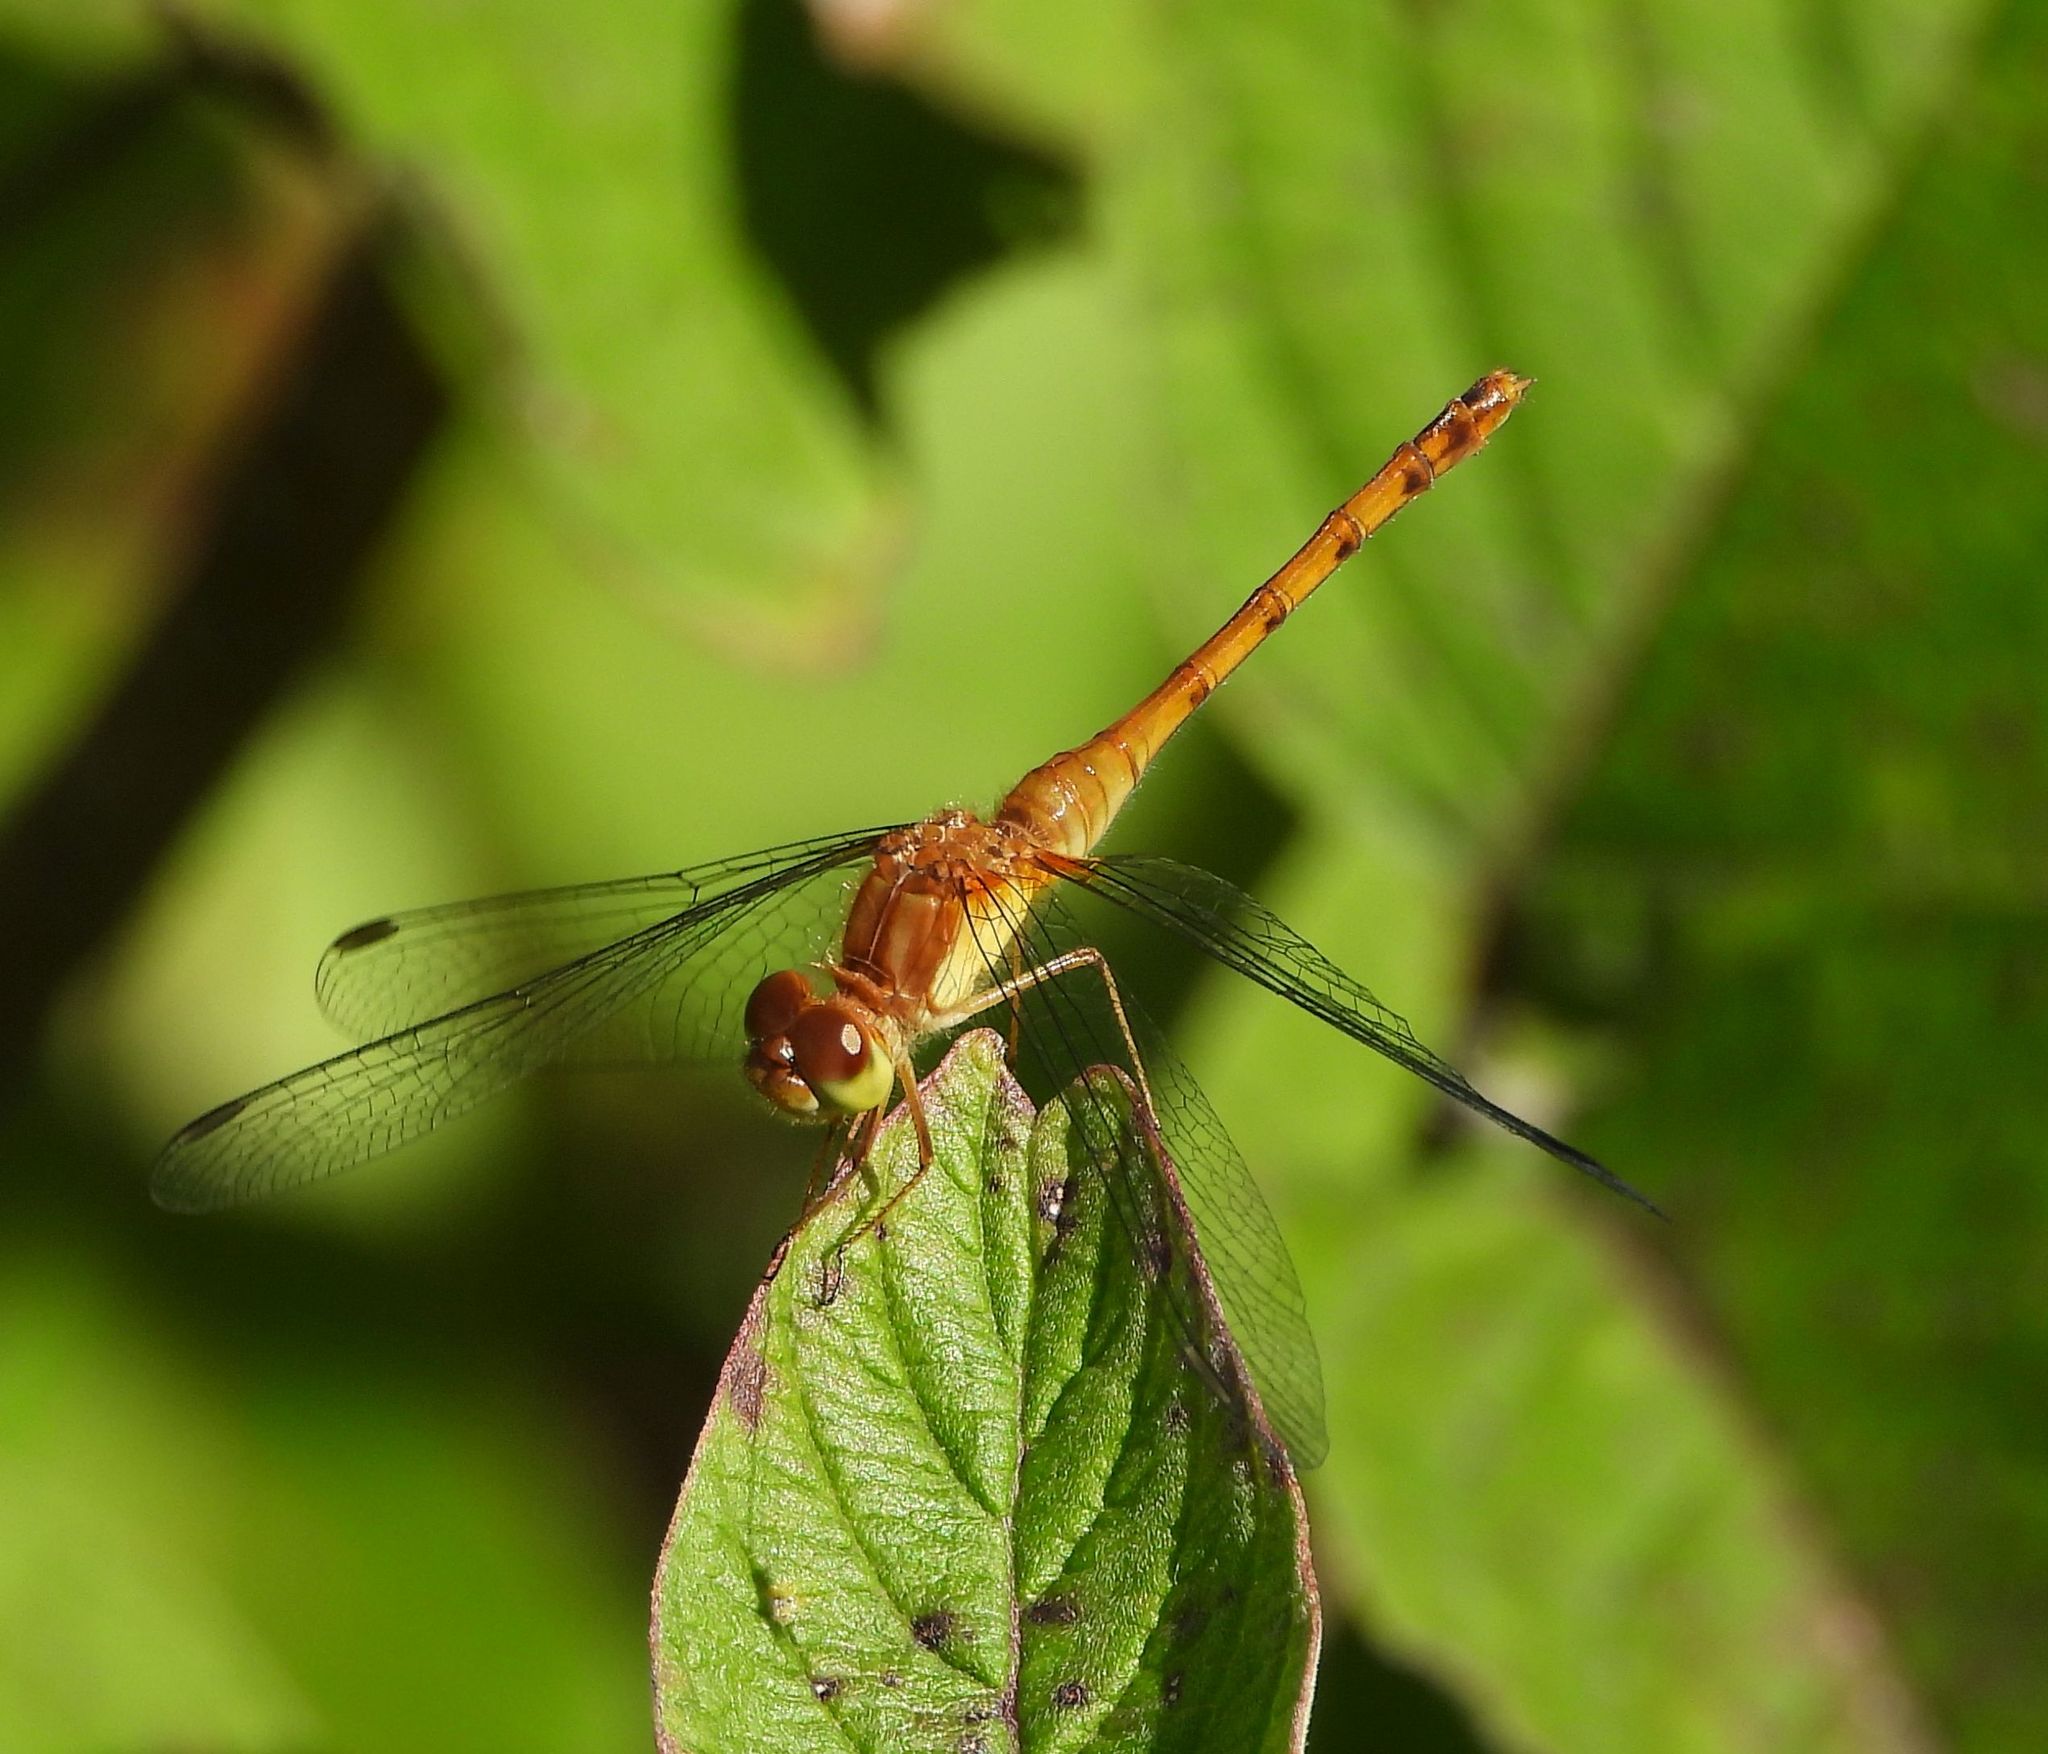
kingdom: Animalia
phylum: Arthropoda
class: Insecta
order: Odonata
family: Libellulidae
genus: Sympetrum
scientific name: Sympetrum vicinum
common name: Autumn meadowhawk
